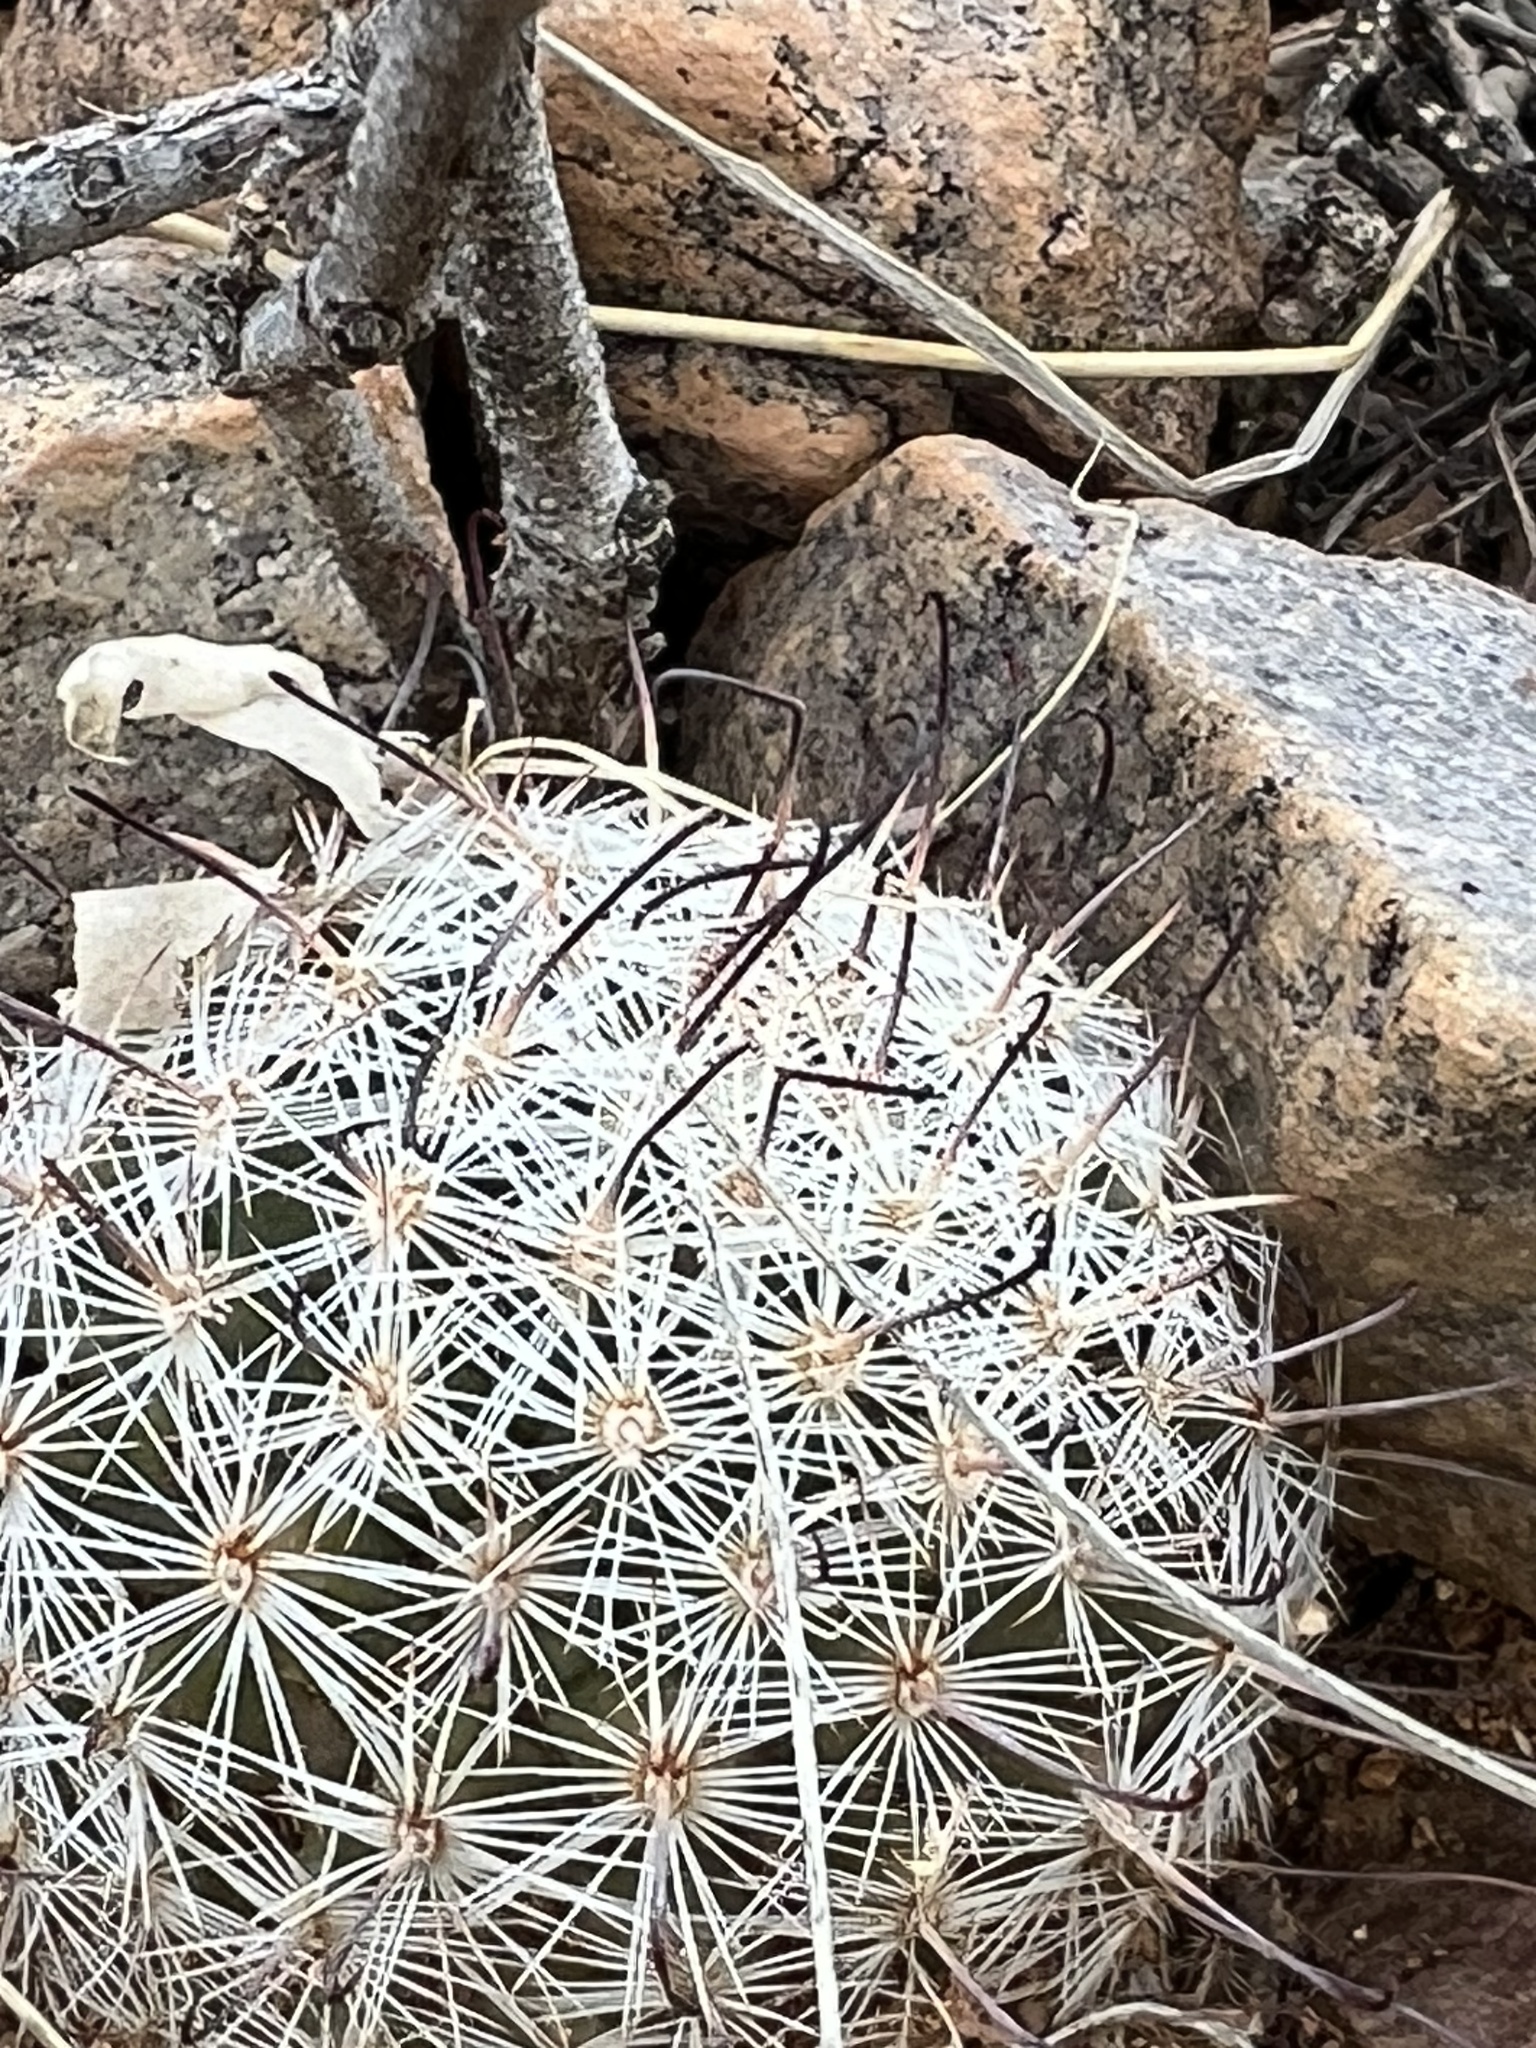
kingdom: Plantae
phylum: Tracheophyta
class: Magnoliopsida
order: Caryophyllales
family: Cactaceae
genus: Cochemiea
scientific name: Cochemiea grahamii
